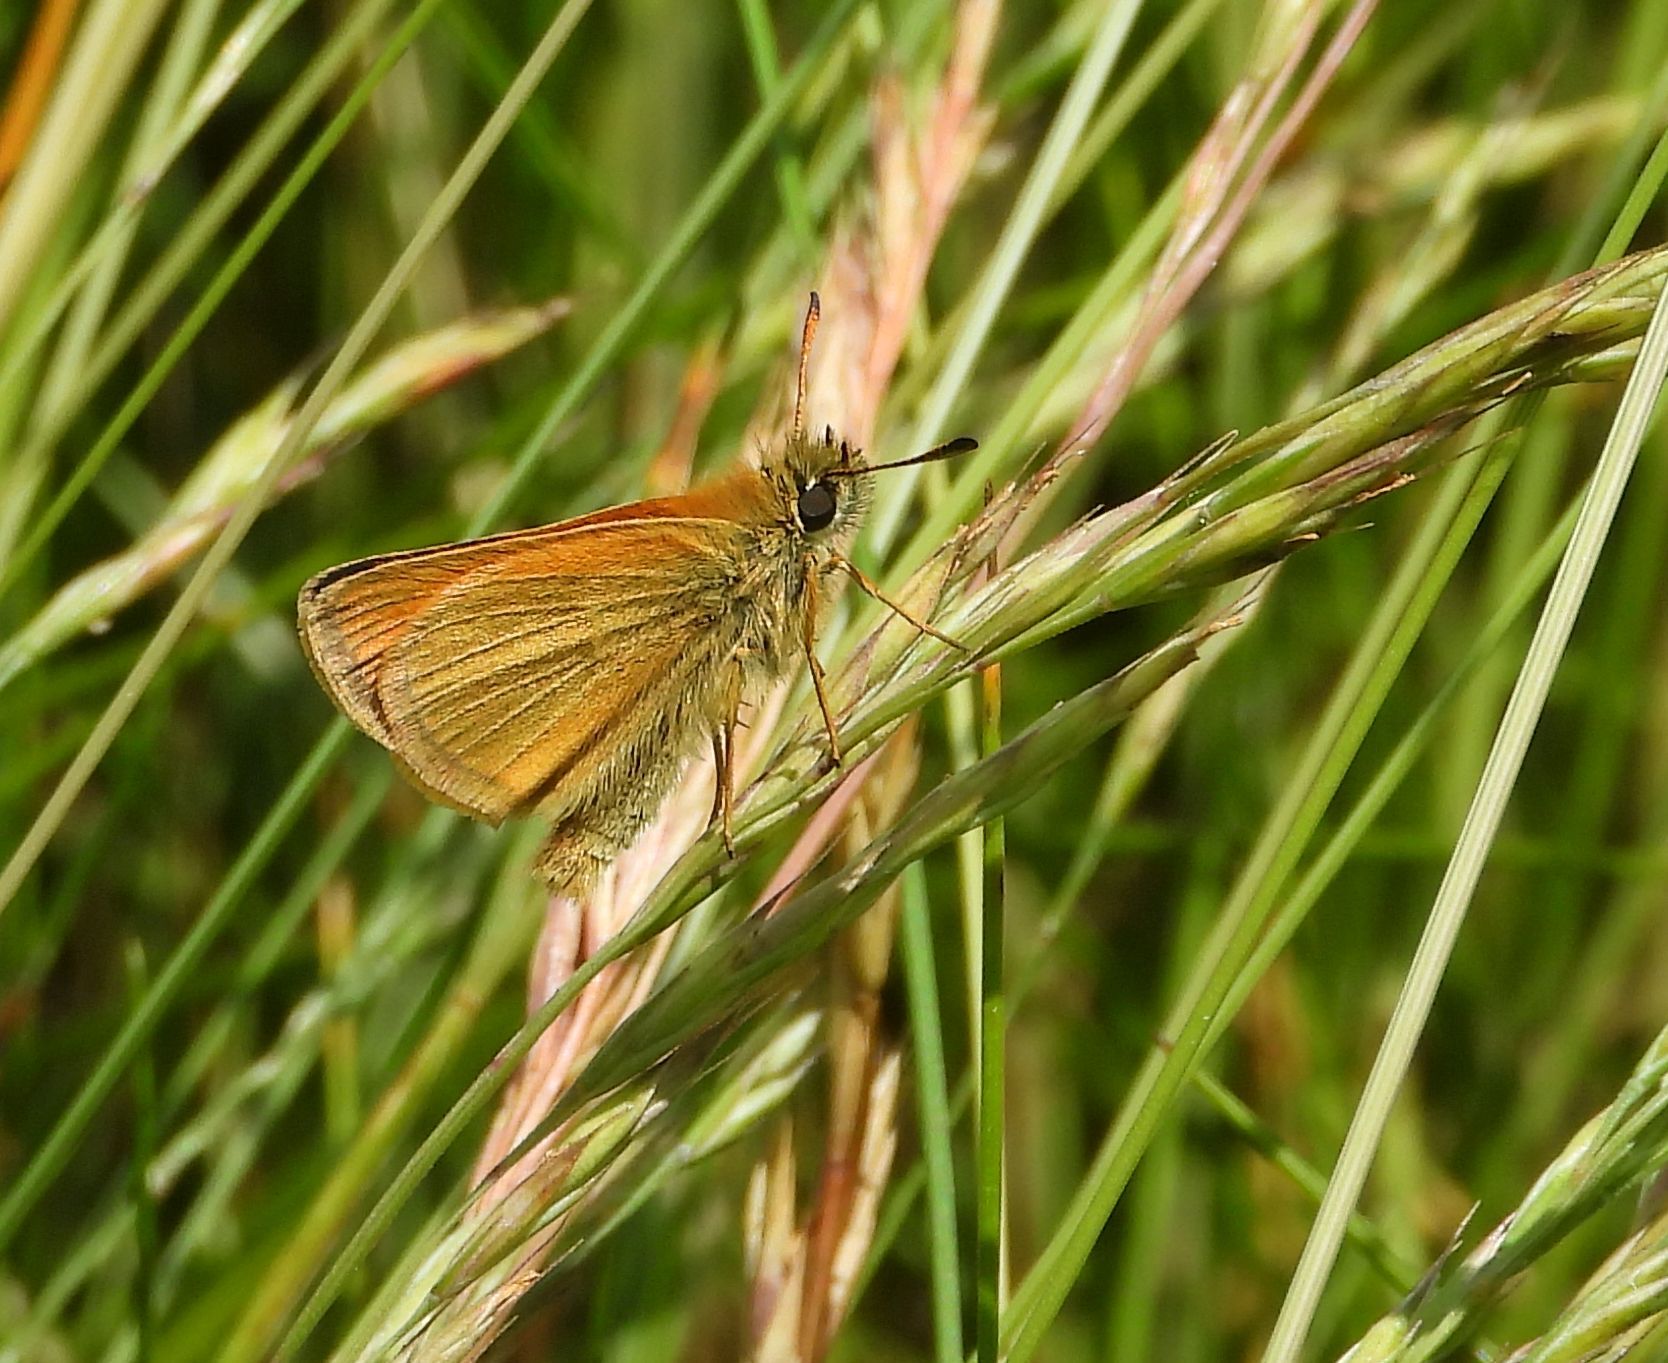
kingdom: Animalia
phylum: Arthropoda
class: Insecta
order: Lepidoptera
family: Hesperiidae
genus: Thymelicus
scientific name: Thymelicus lineola
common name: Essex skipper
